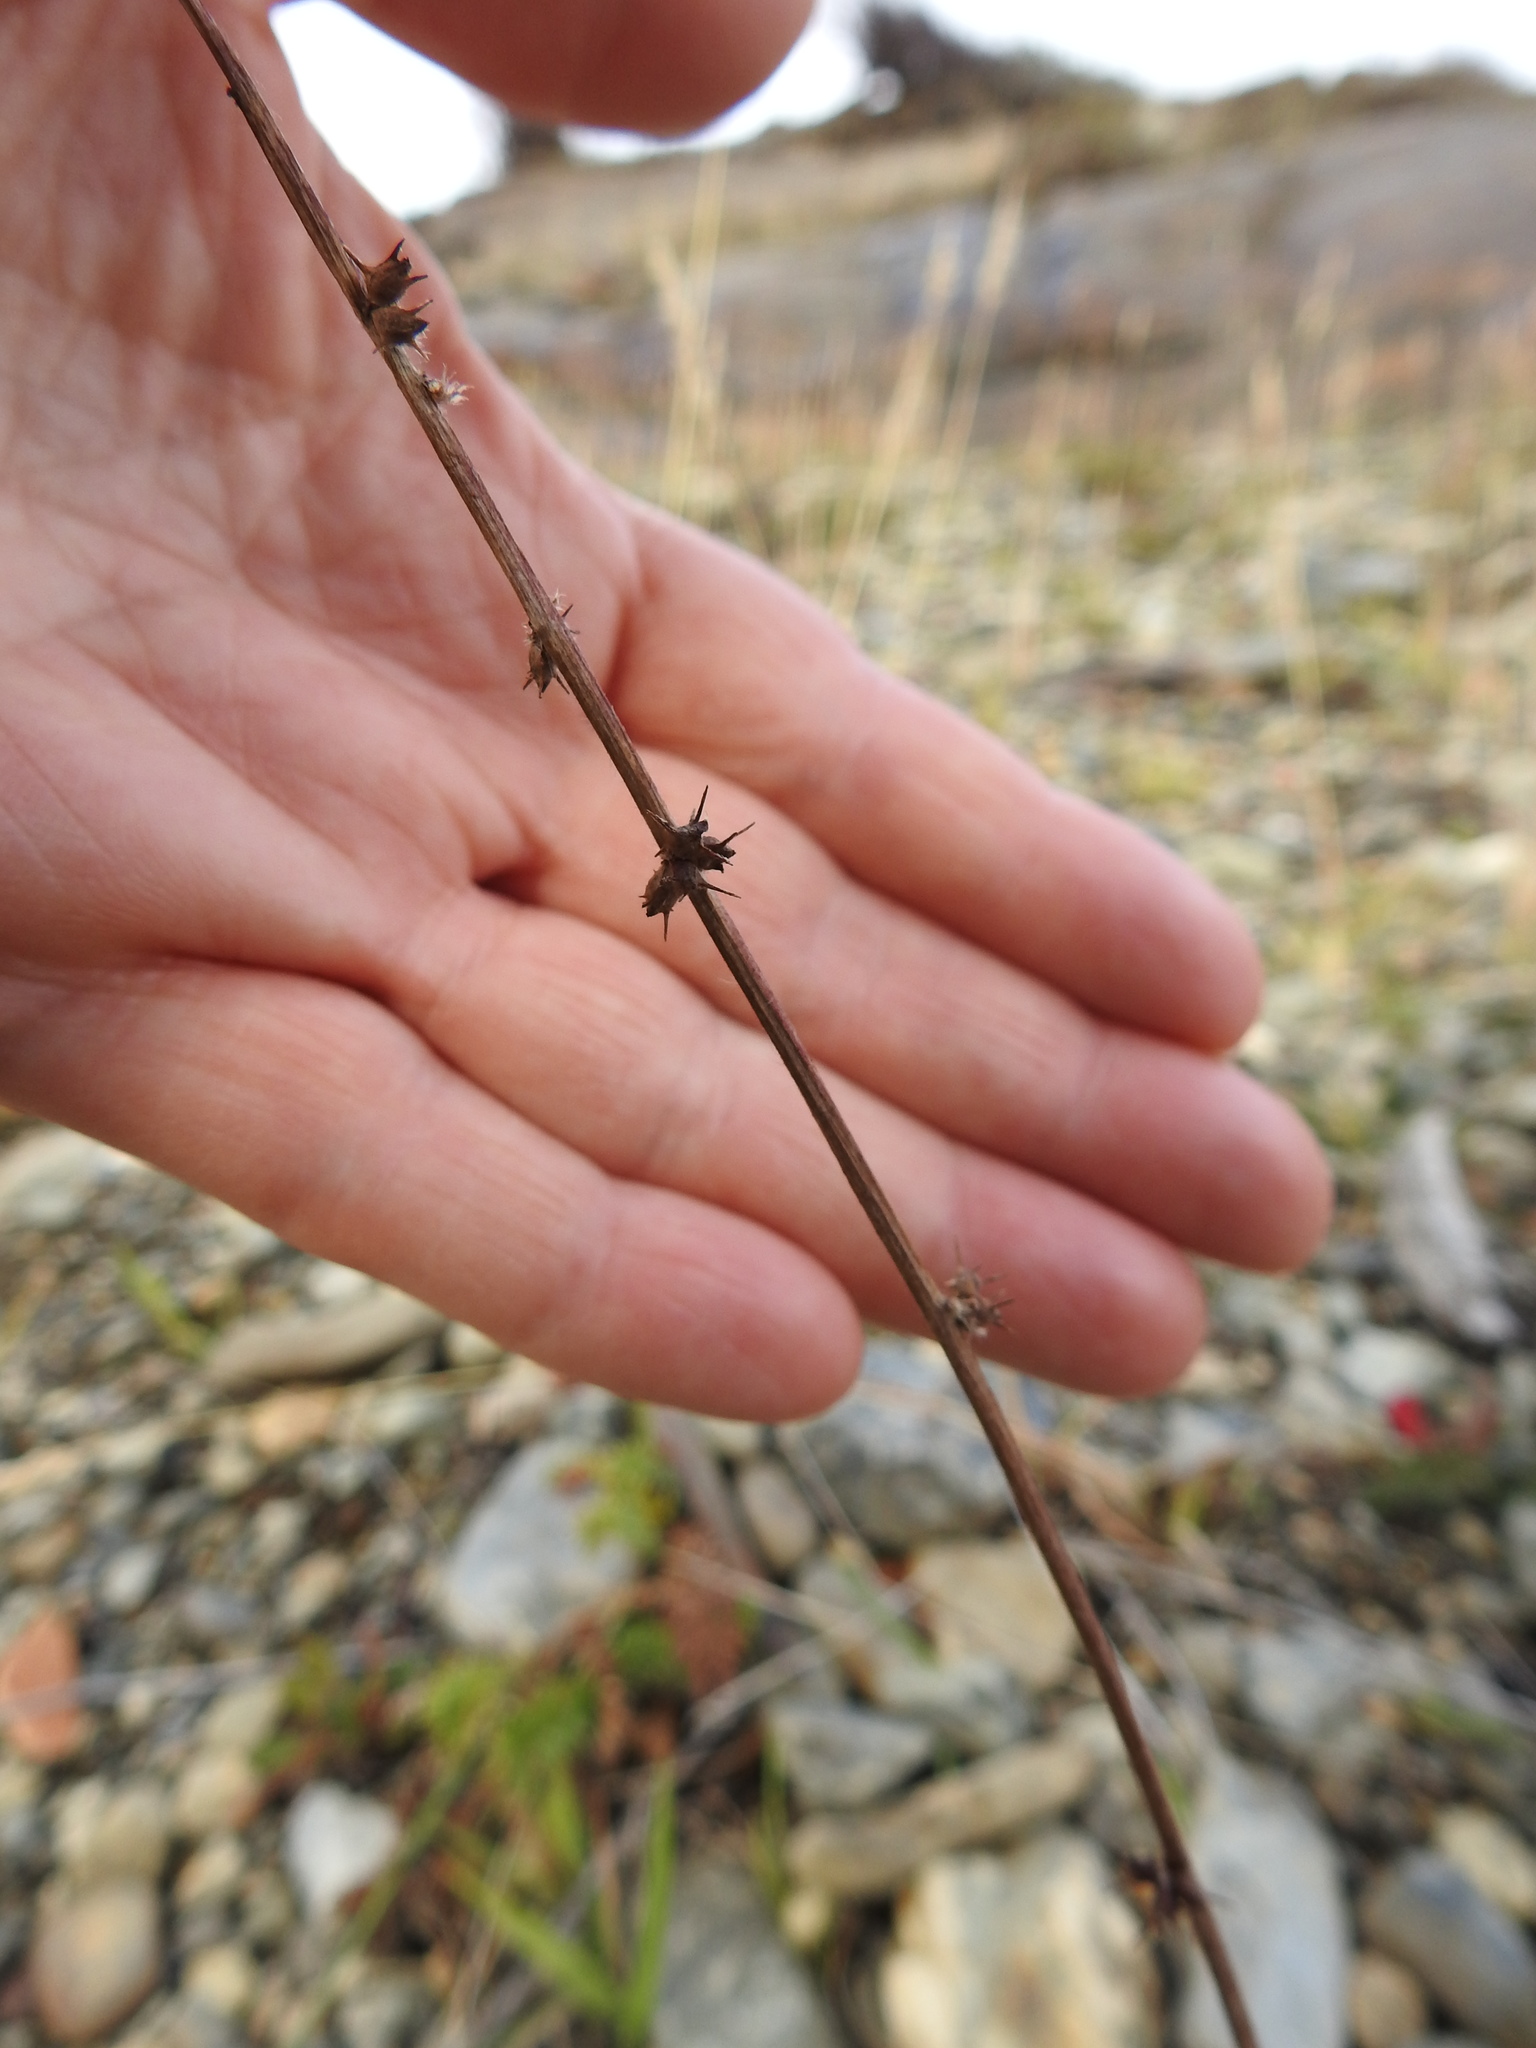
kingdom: Plantae
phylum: Tracheophyta
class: Magnoliopsida
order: Rosales
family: Rosaceae
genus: Acaena
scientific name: Acaena pinnatifida
